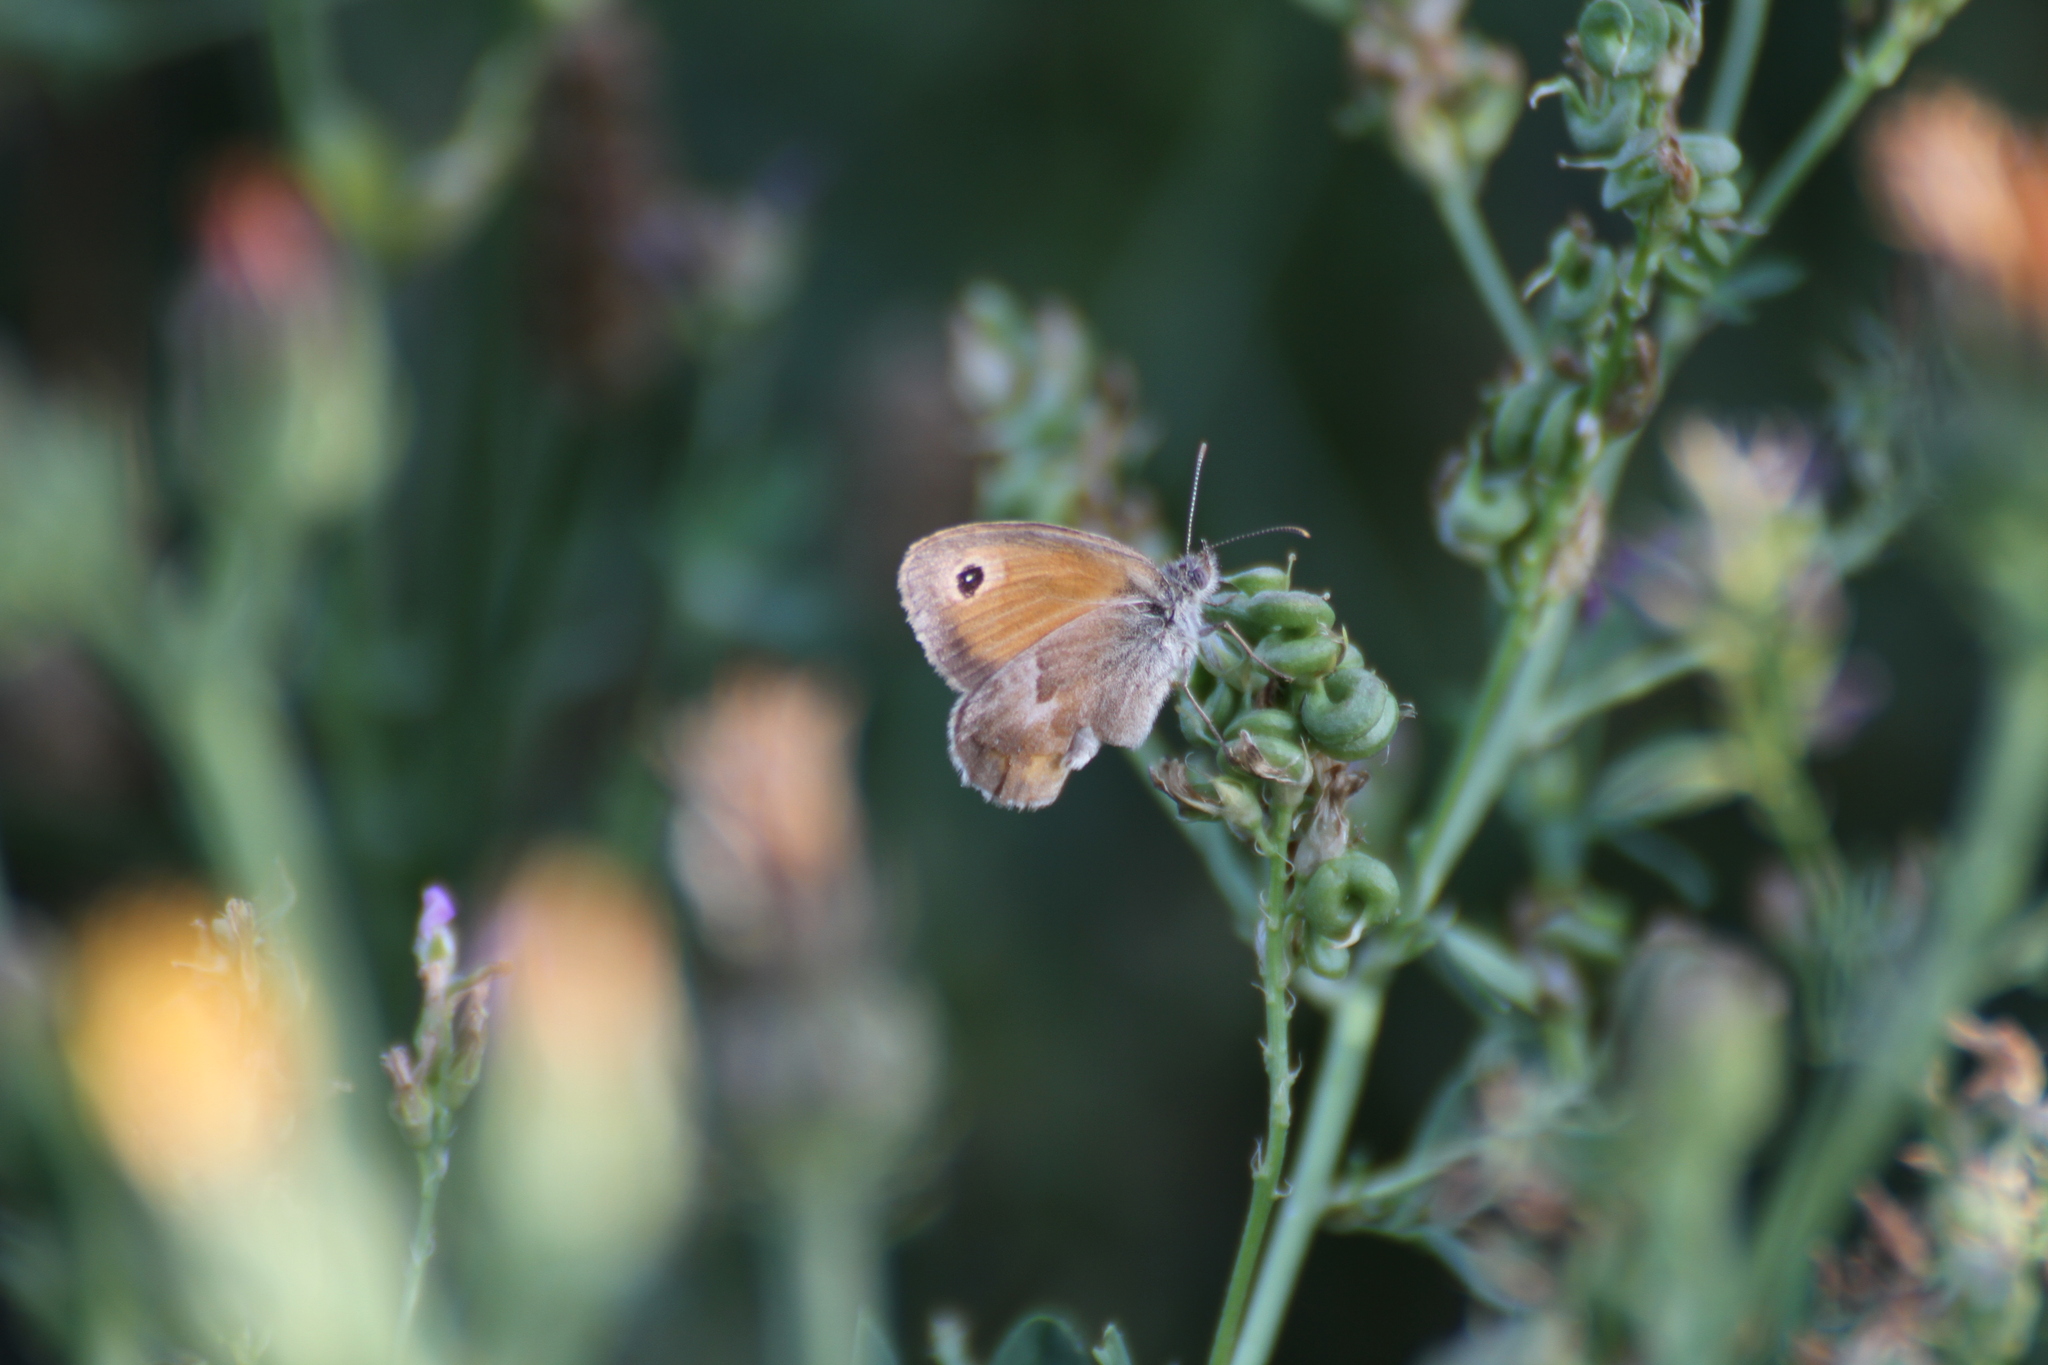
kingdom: Animalia
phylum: Arthropoda
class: Insecta
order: Lepidoptera
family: Nymphalidae
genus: Coenonympha
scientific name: Coenonympha pamphilus
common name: Small heath
